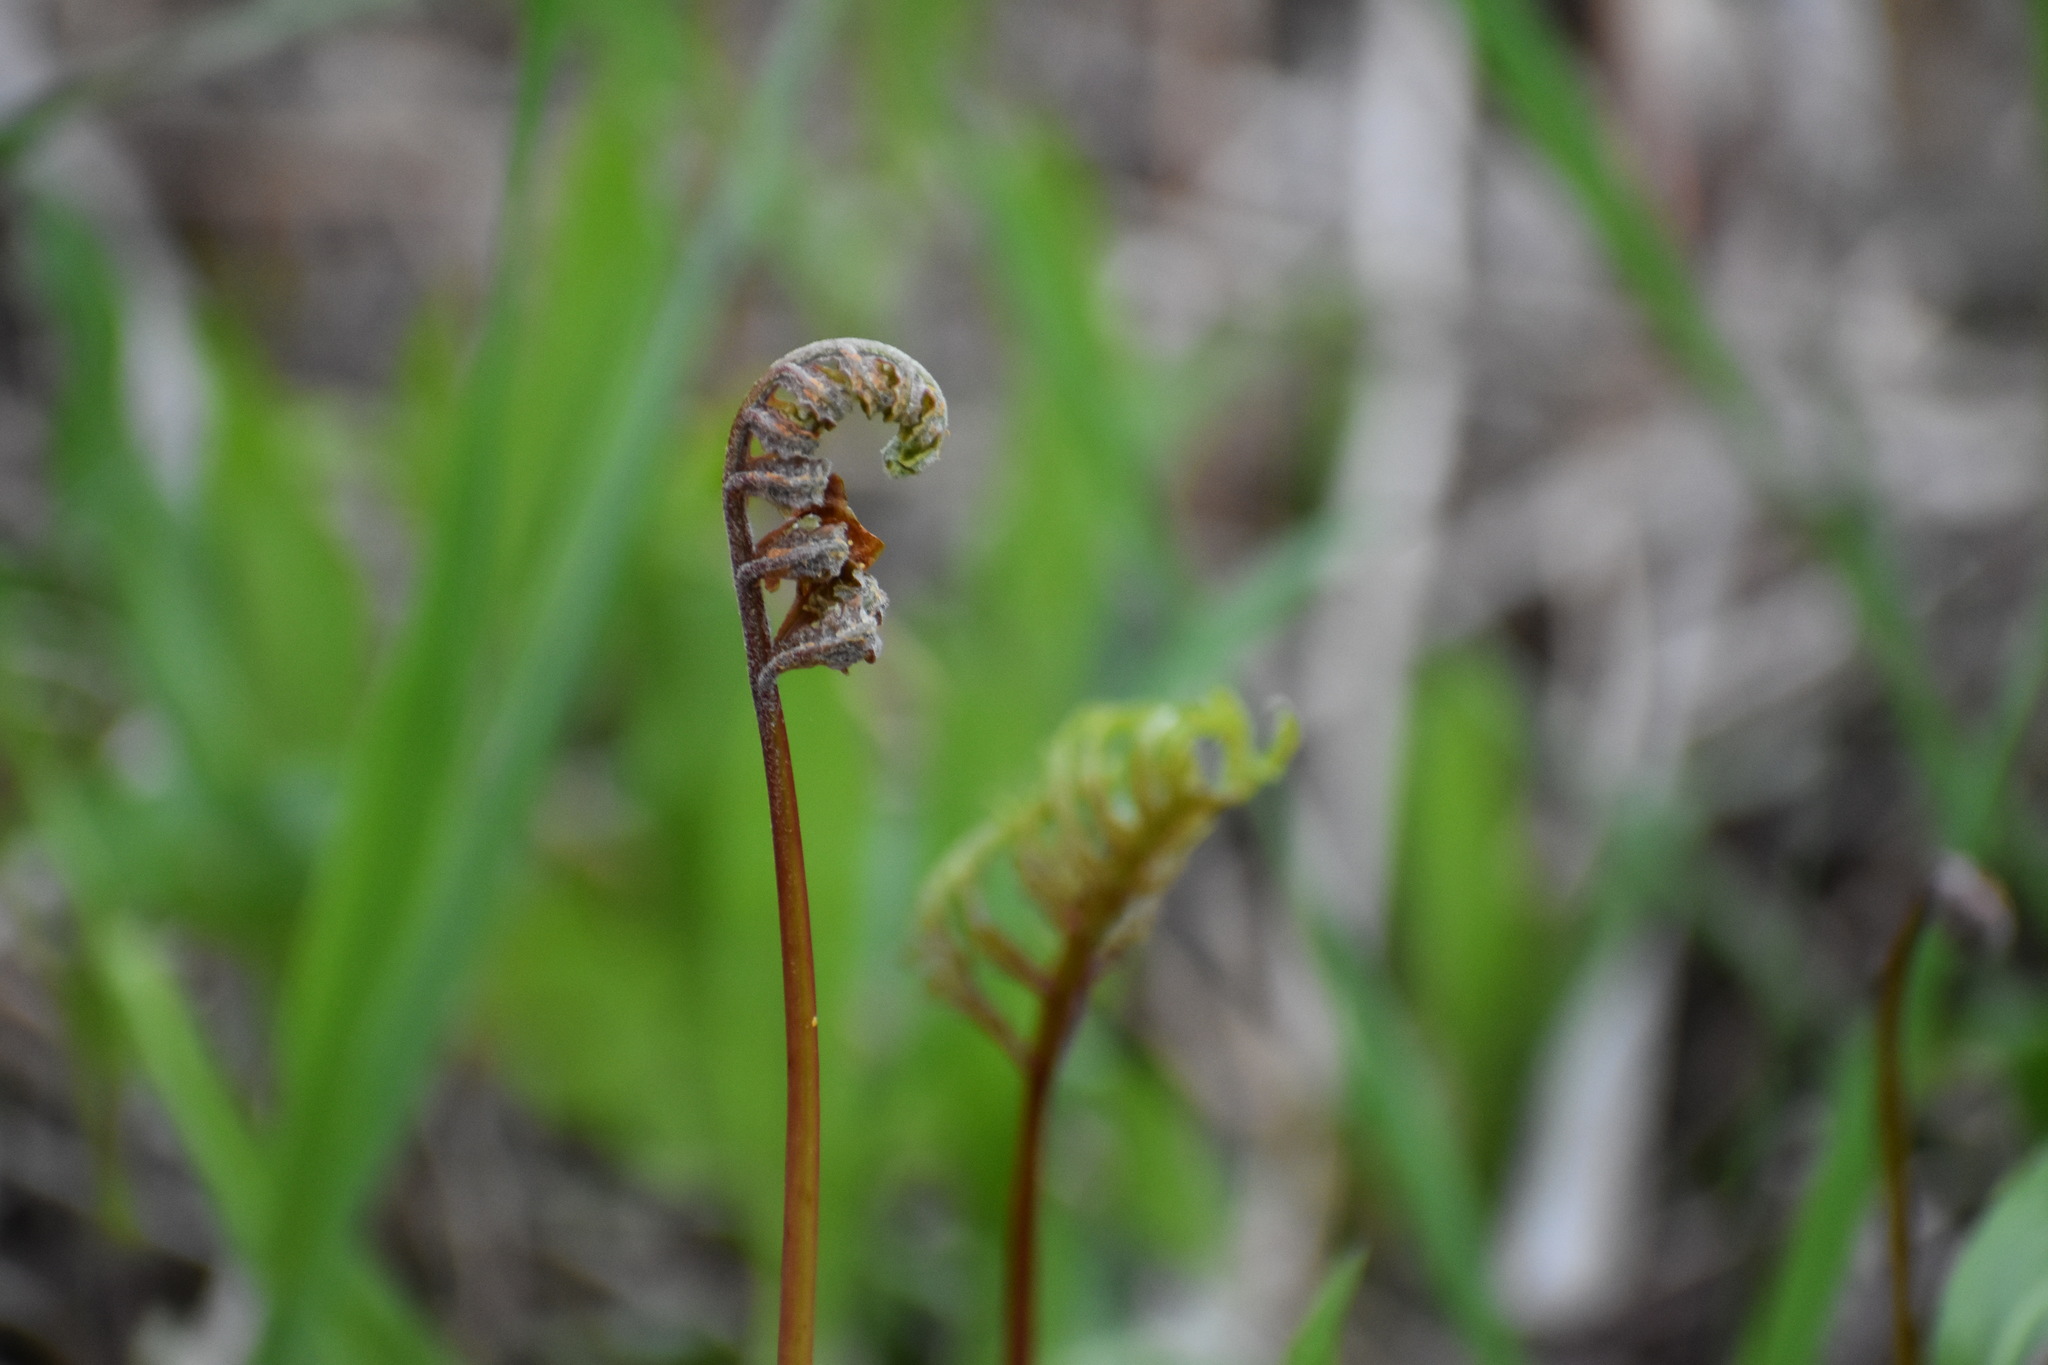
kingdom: Plantae
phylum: Tracheophyta
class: Polypodiopsida
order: Polypodiales
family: Onocleaceae
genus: Onoclea
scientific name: Onoclea sensibilis
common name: Sensitive fern
